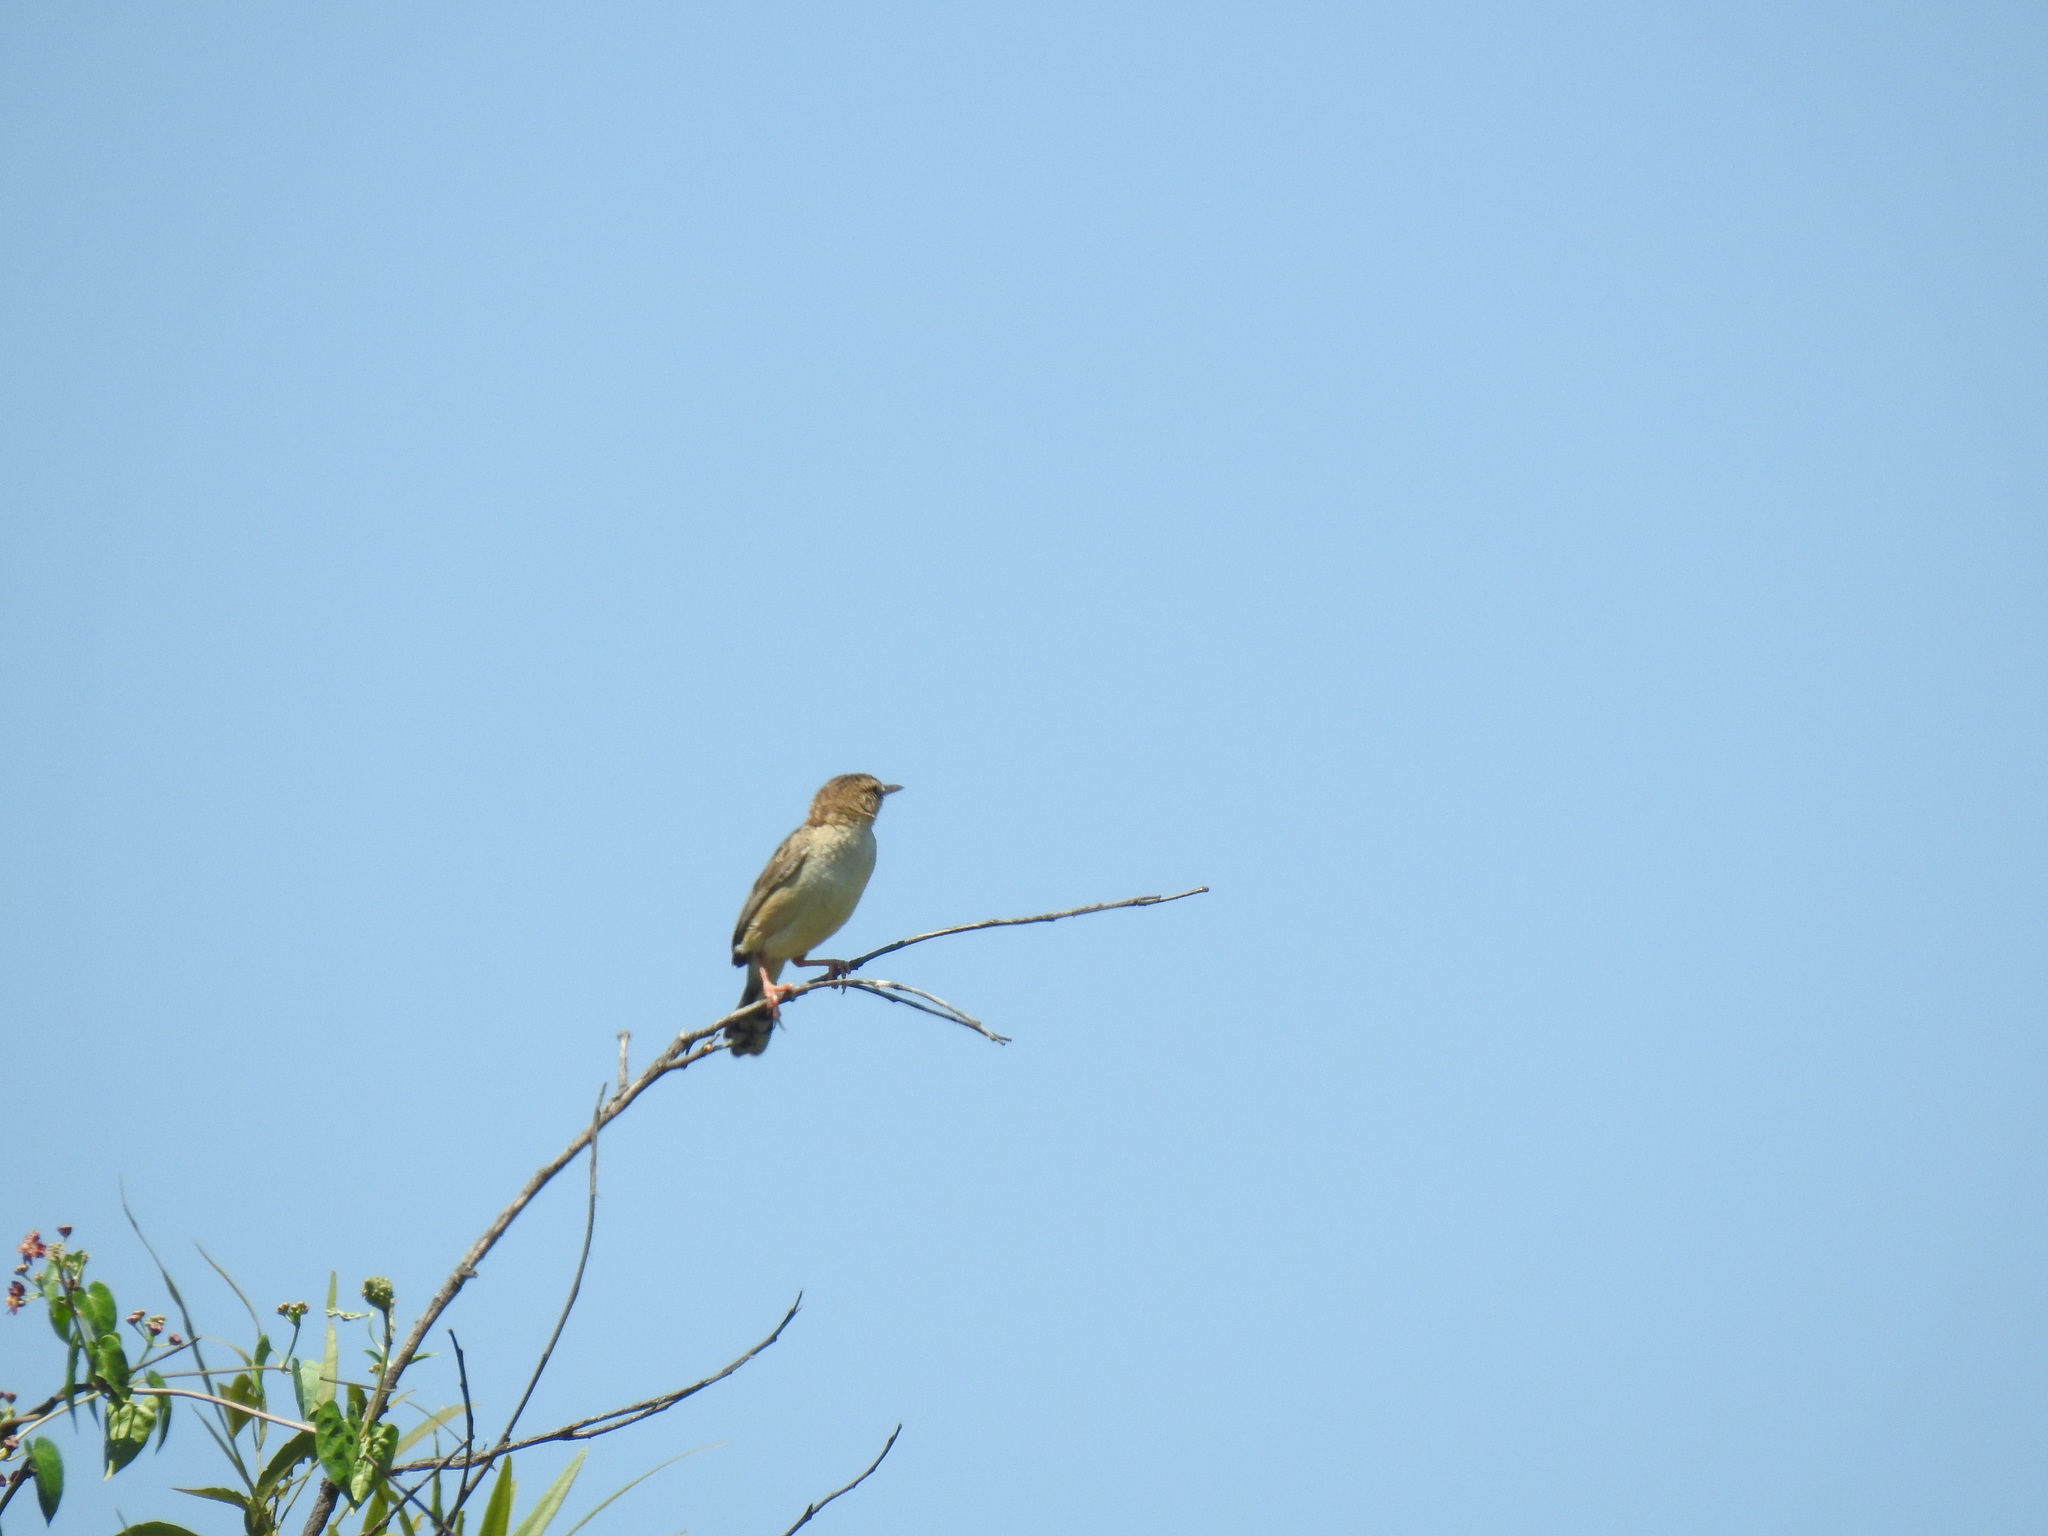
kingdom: Animalia
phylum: Chordata
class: Aves
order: Passeriformes
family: Cisticolidae
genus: Cisticola
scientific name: Cisticola rufilatus
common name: Tinkling cisticola
